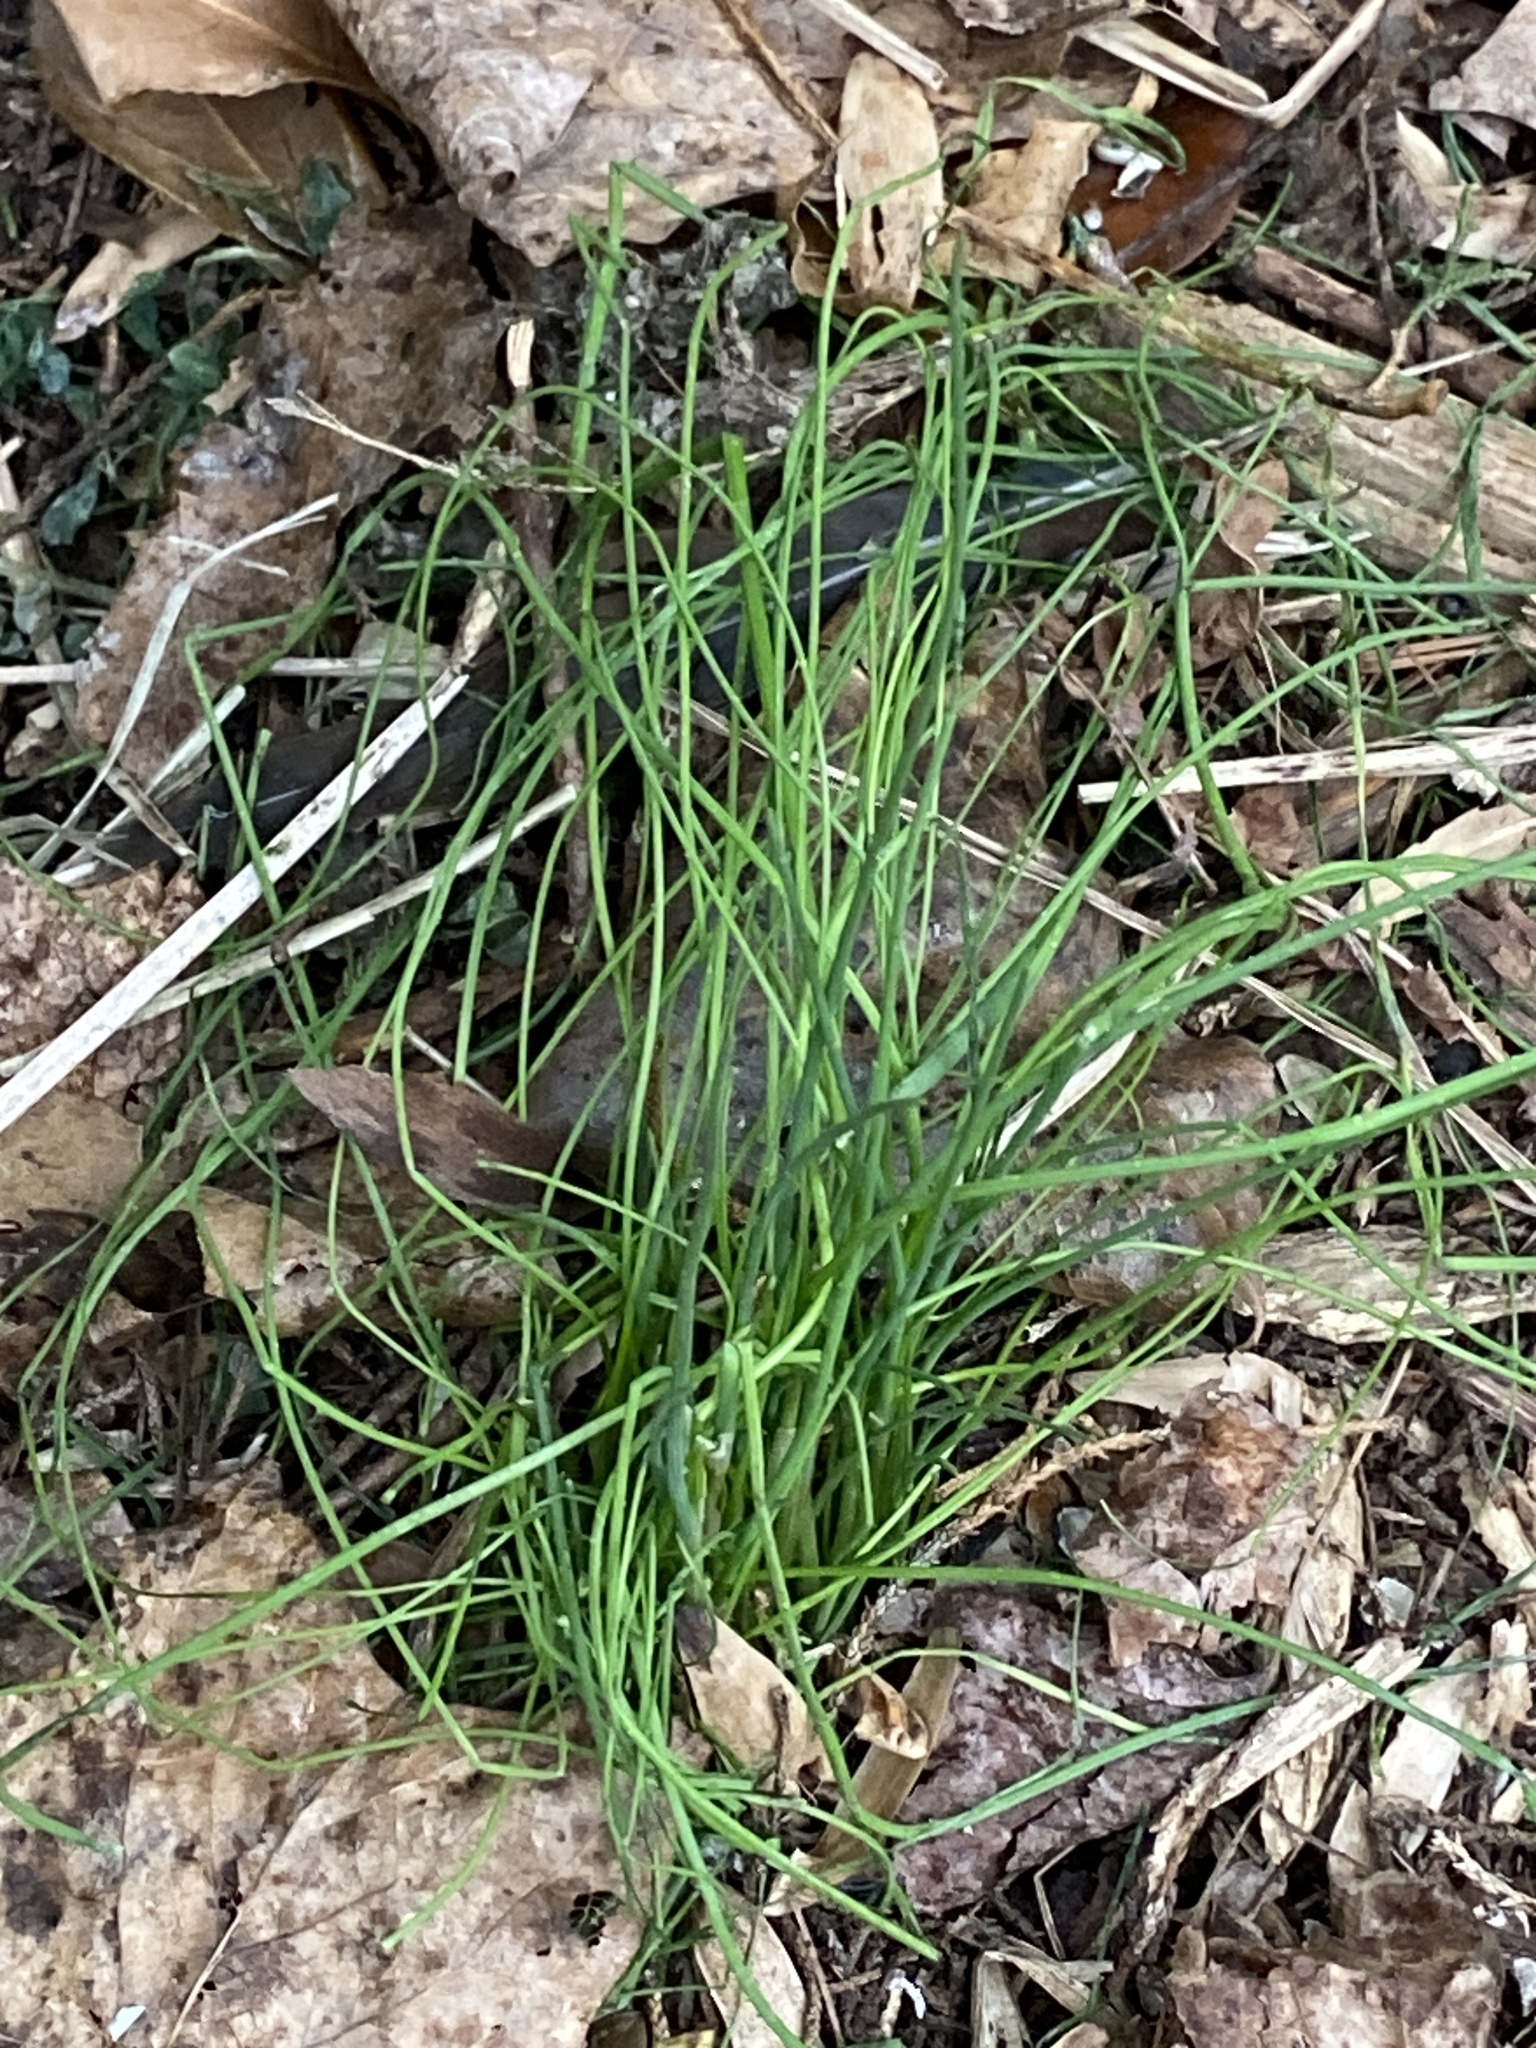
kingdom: Plantae
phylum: Tracheophyta
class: Liliopsida
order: Asparagales
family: Amaryllidaceae
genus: Allium
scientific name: Allium vineale
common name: Crow garlic
